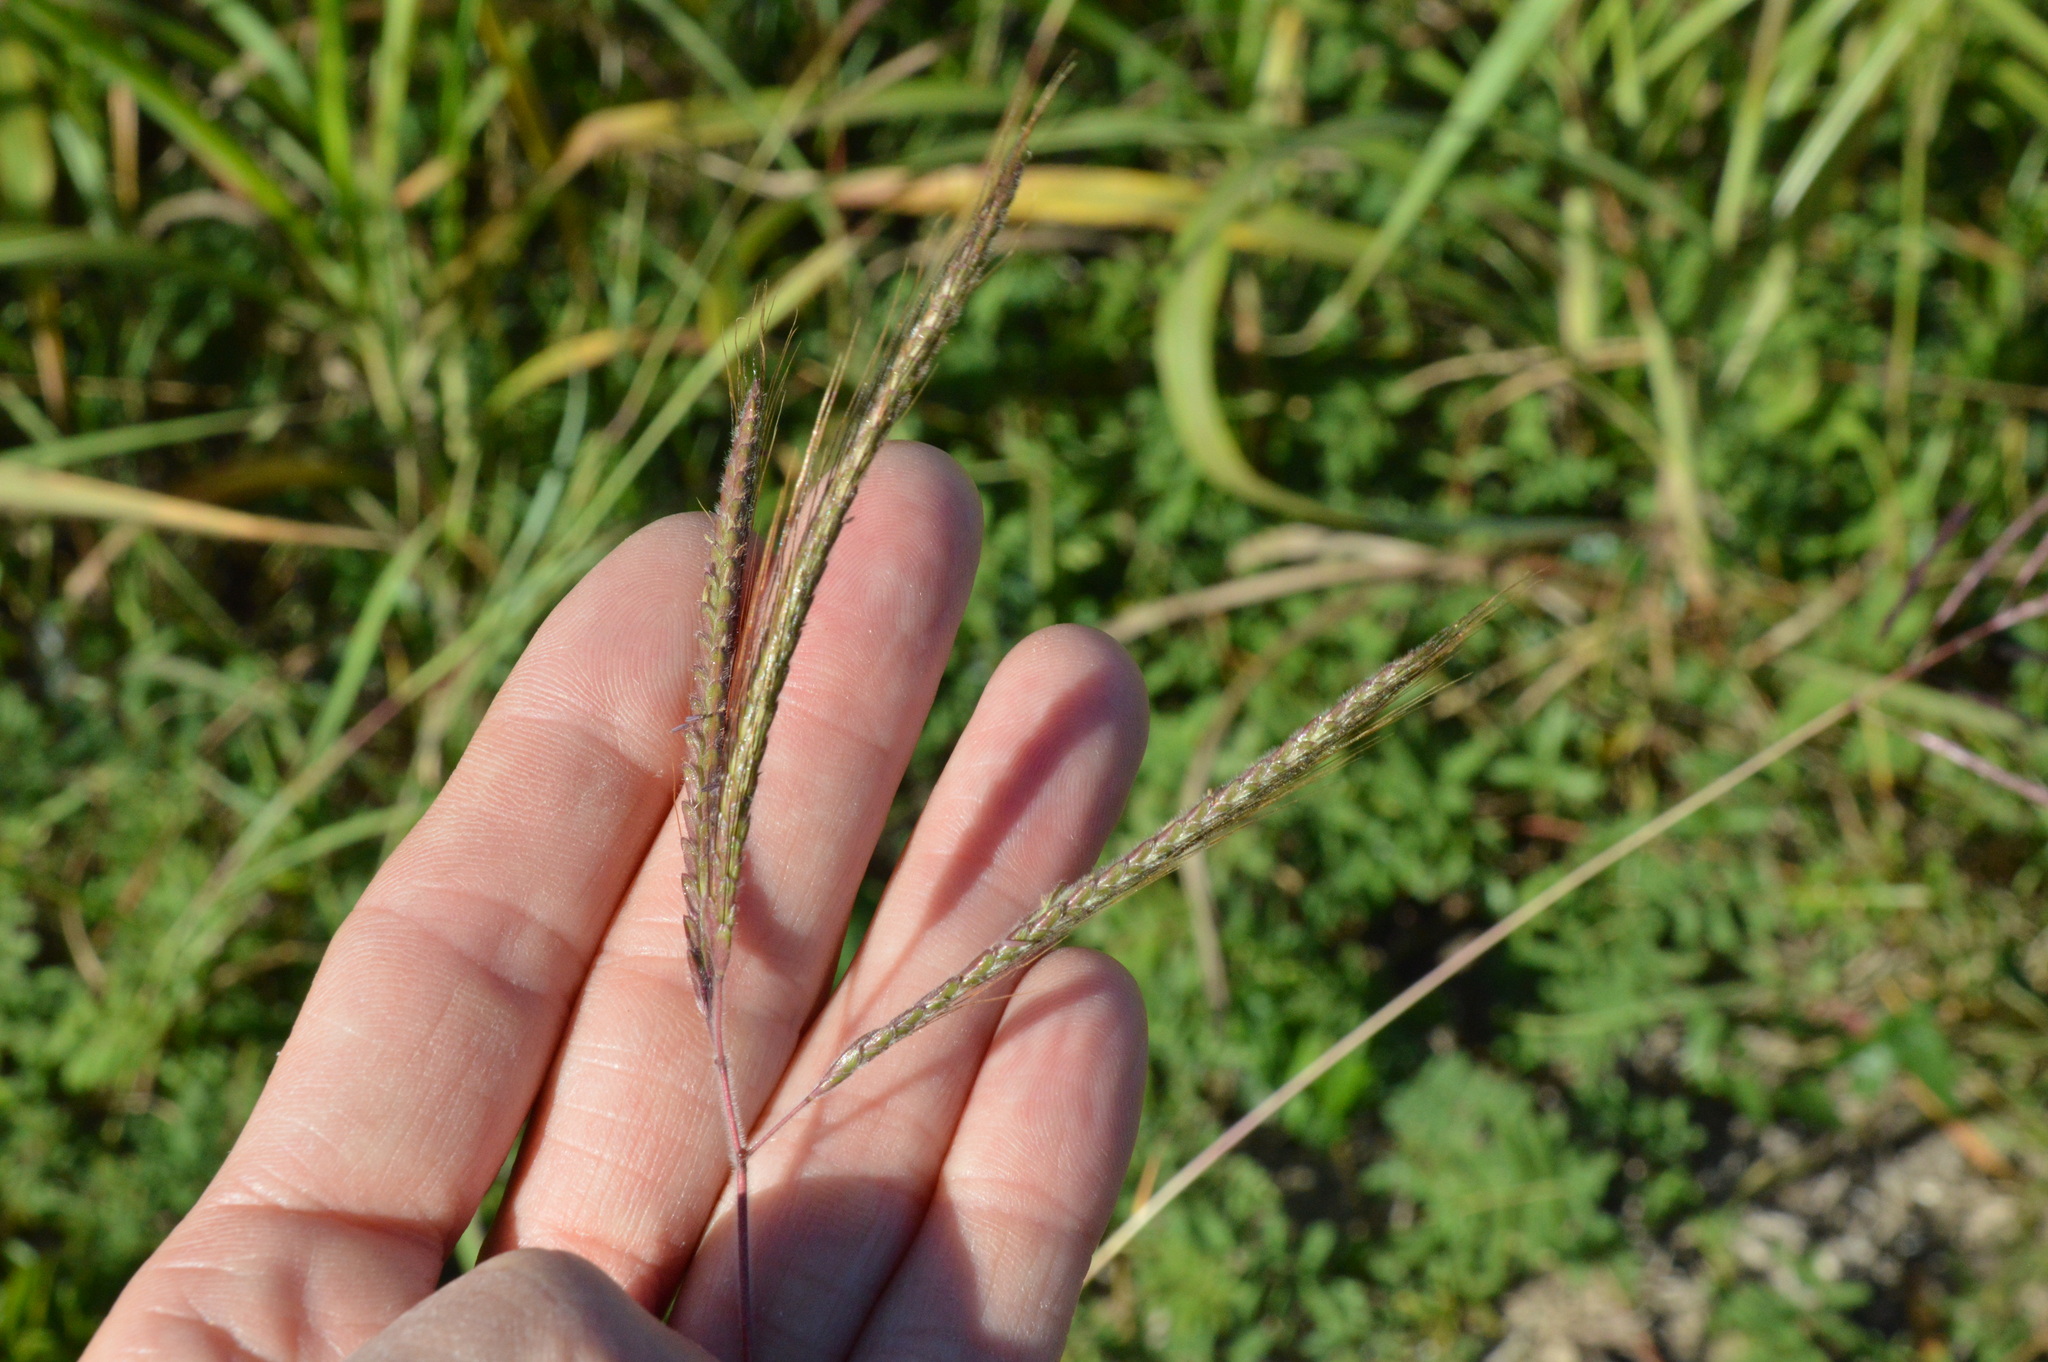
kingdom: Plantae
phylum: Tracheophyta
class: Liliopsida
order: Poales
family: Poaceae
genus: Dichanthium
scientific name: Dichanthium aristatum
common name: Angleton bluestem
